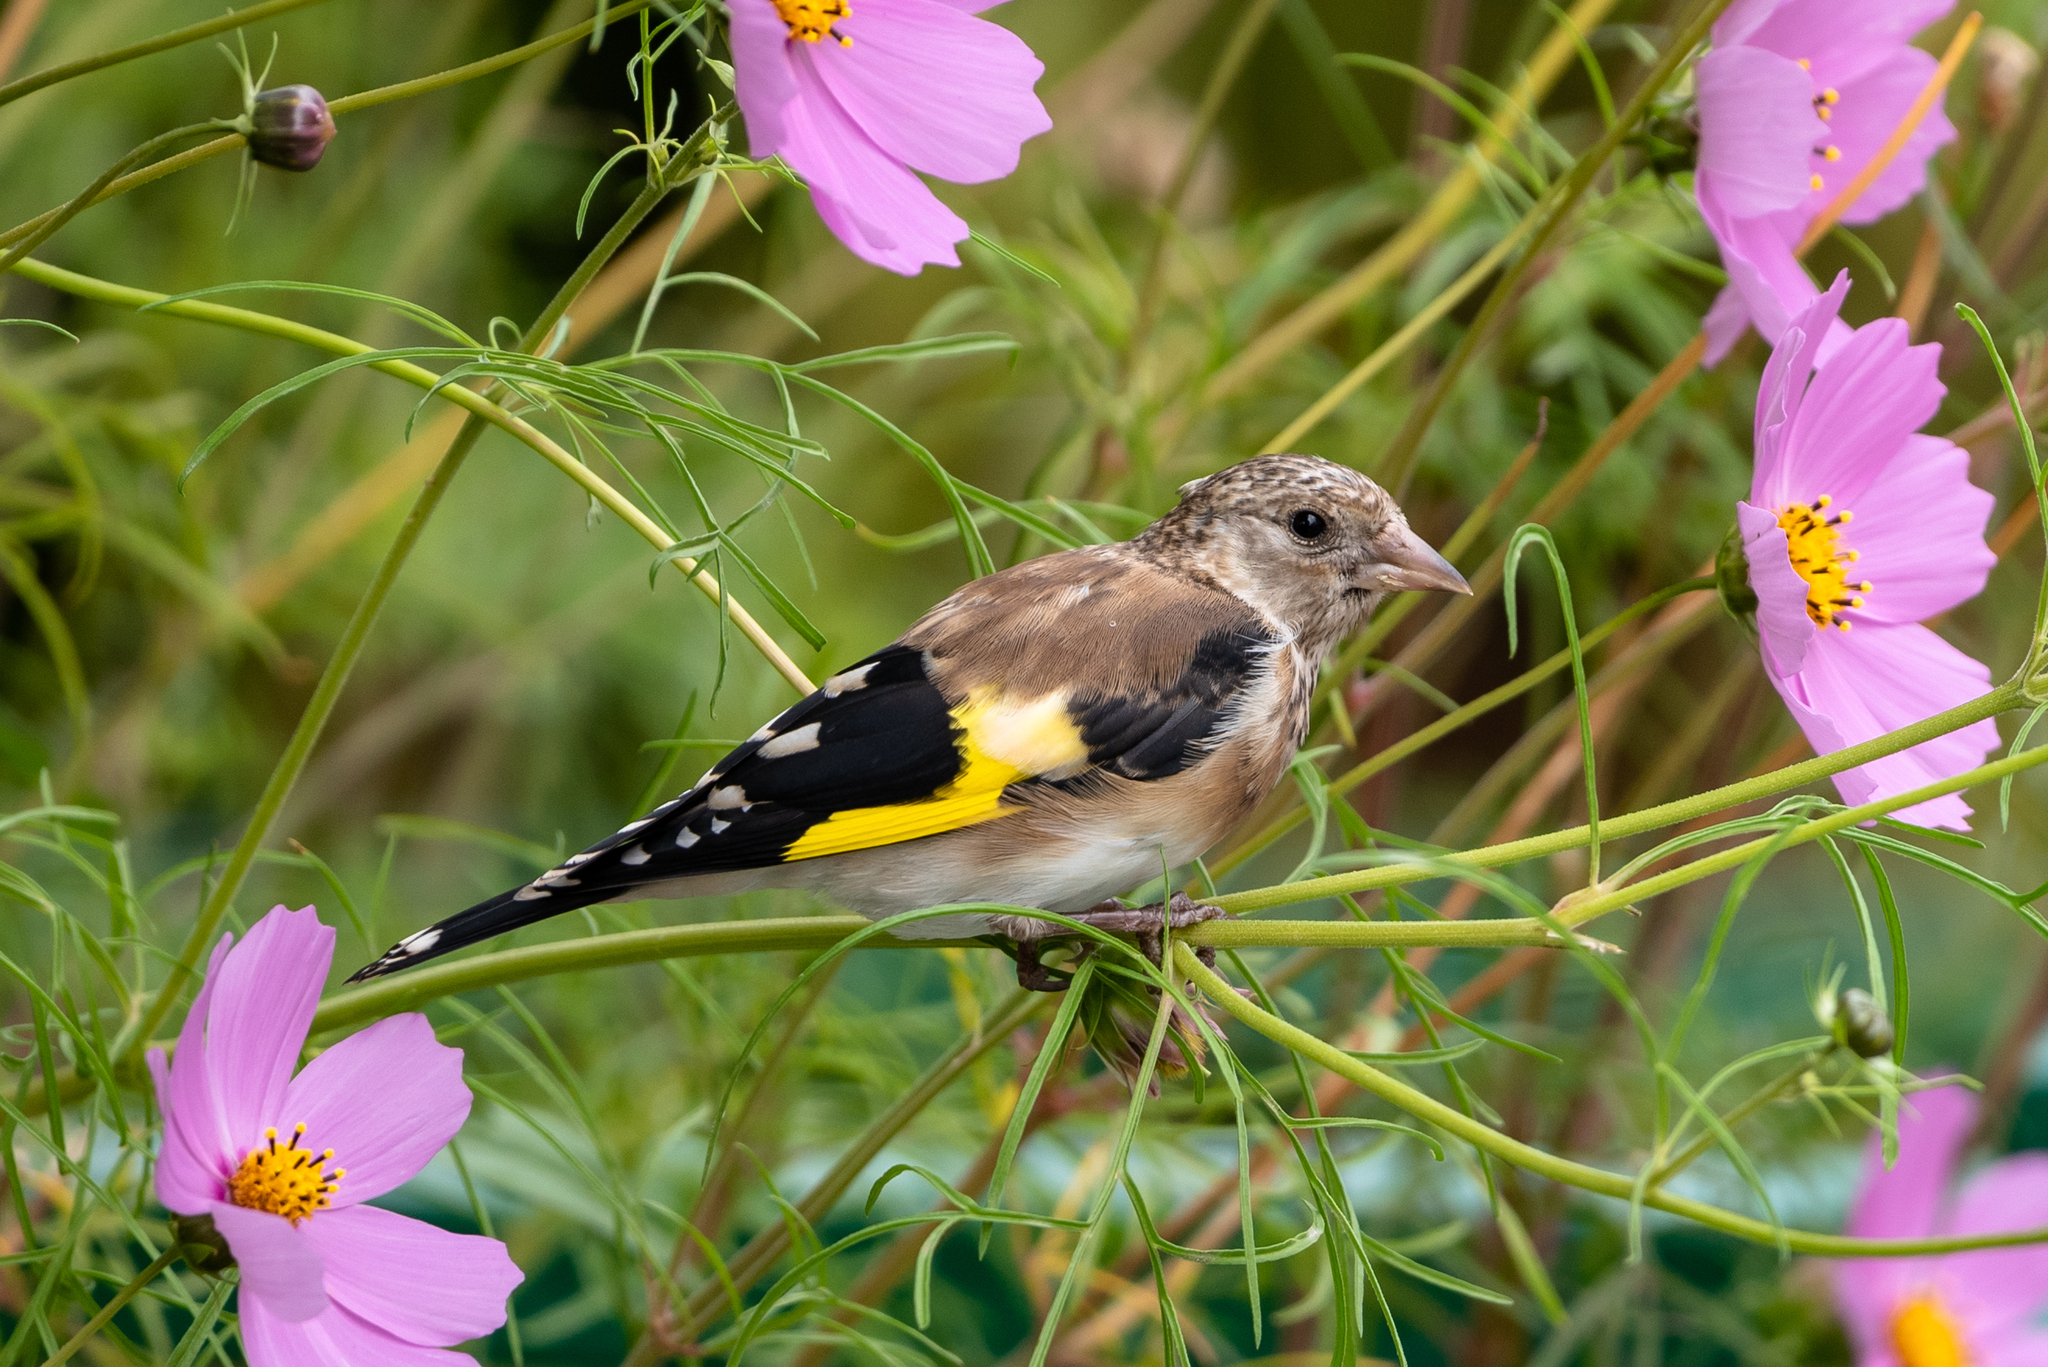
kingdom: Animalia
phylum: Chordata
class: Aves
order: Passeriformes
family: Fringillidae
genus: Carduelis
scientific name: Carduelis carduelis
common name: European goldfinch
